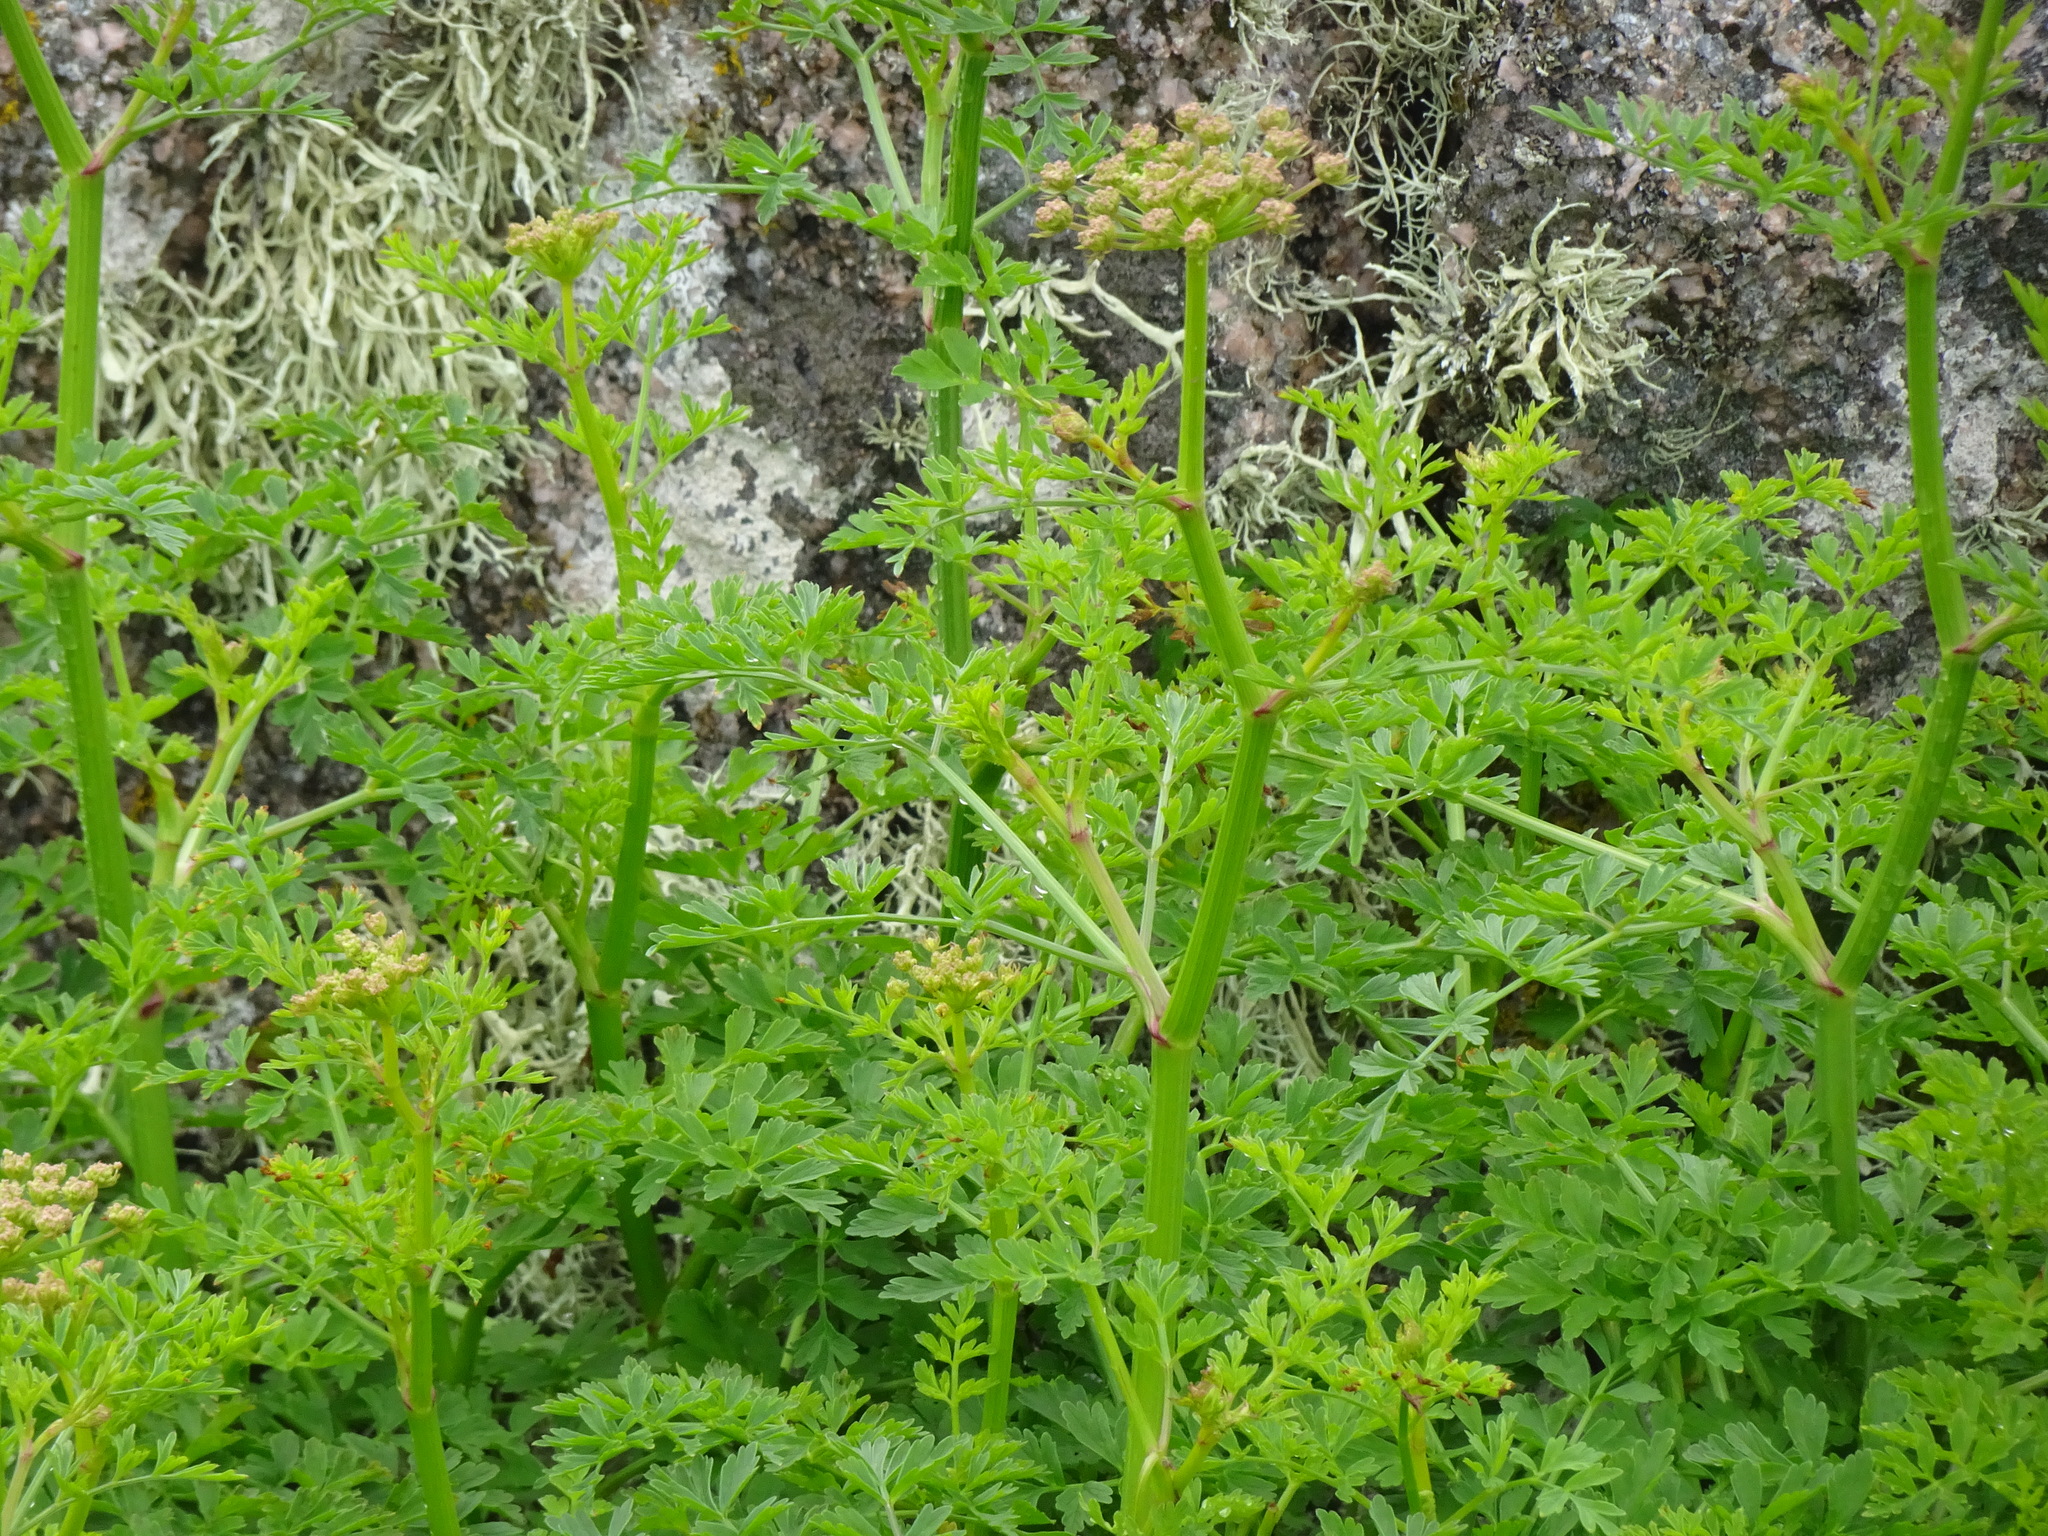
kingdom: Plantae
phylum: Tracheophyta
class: Magnoliopsida
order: Apiales
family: Apiaceae
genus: Oenanthe
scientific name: Oenanthe crocata
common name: Hemlock water-dropwort
